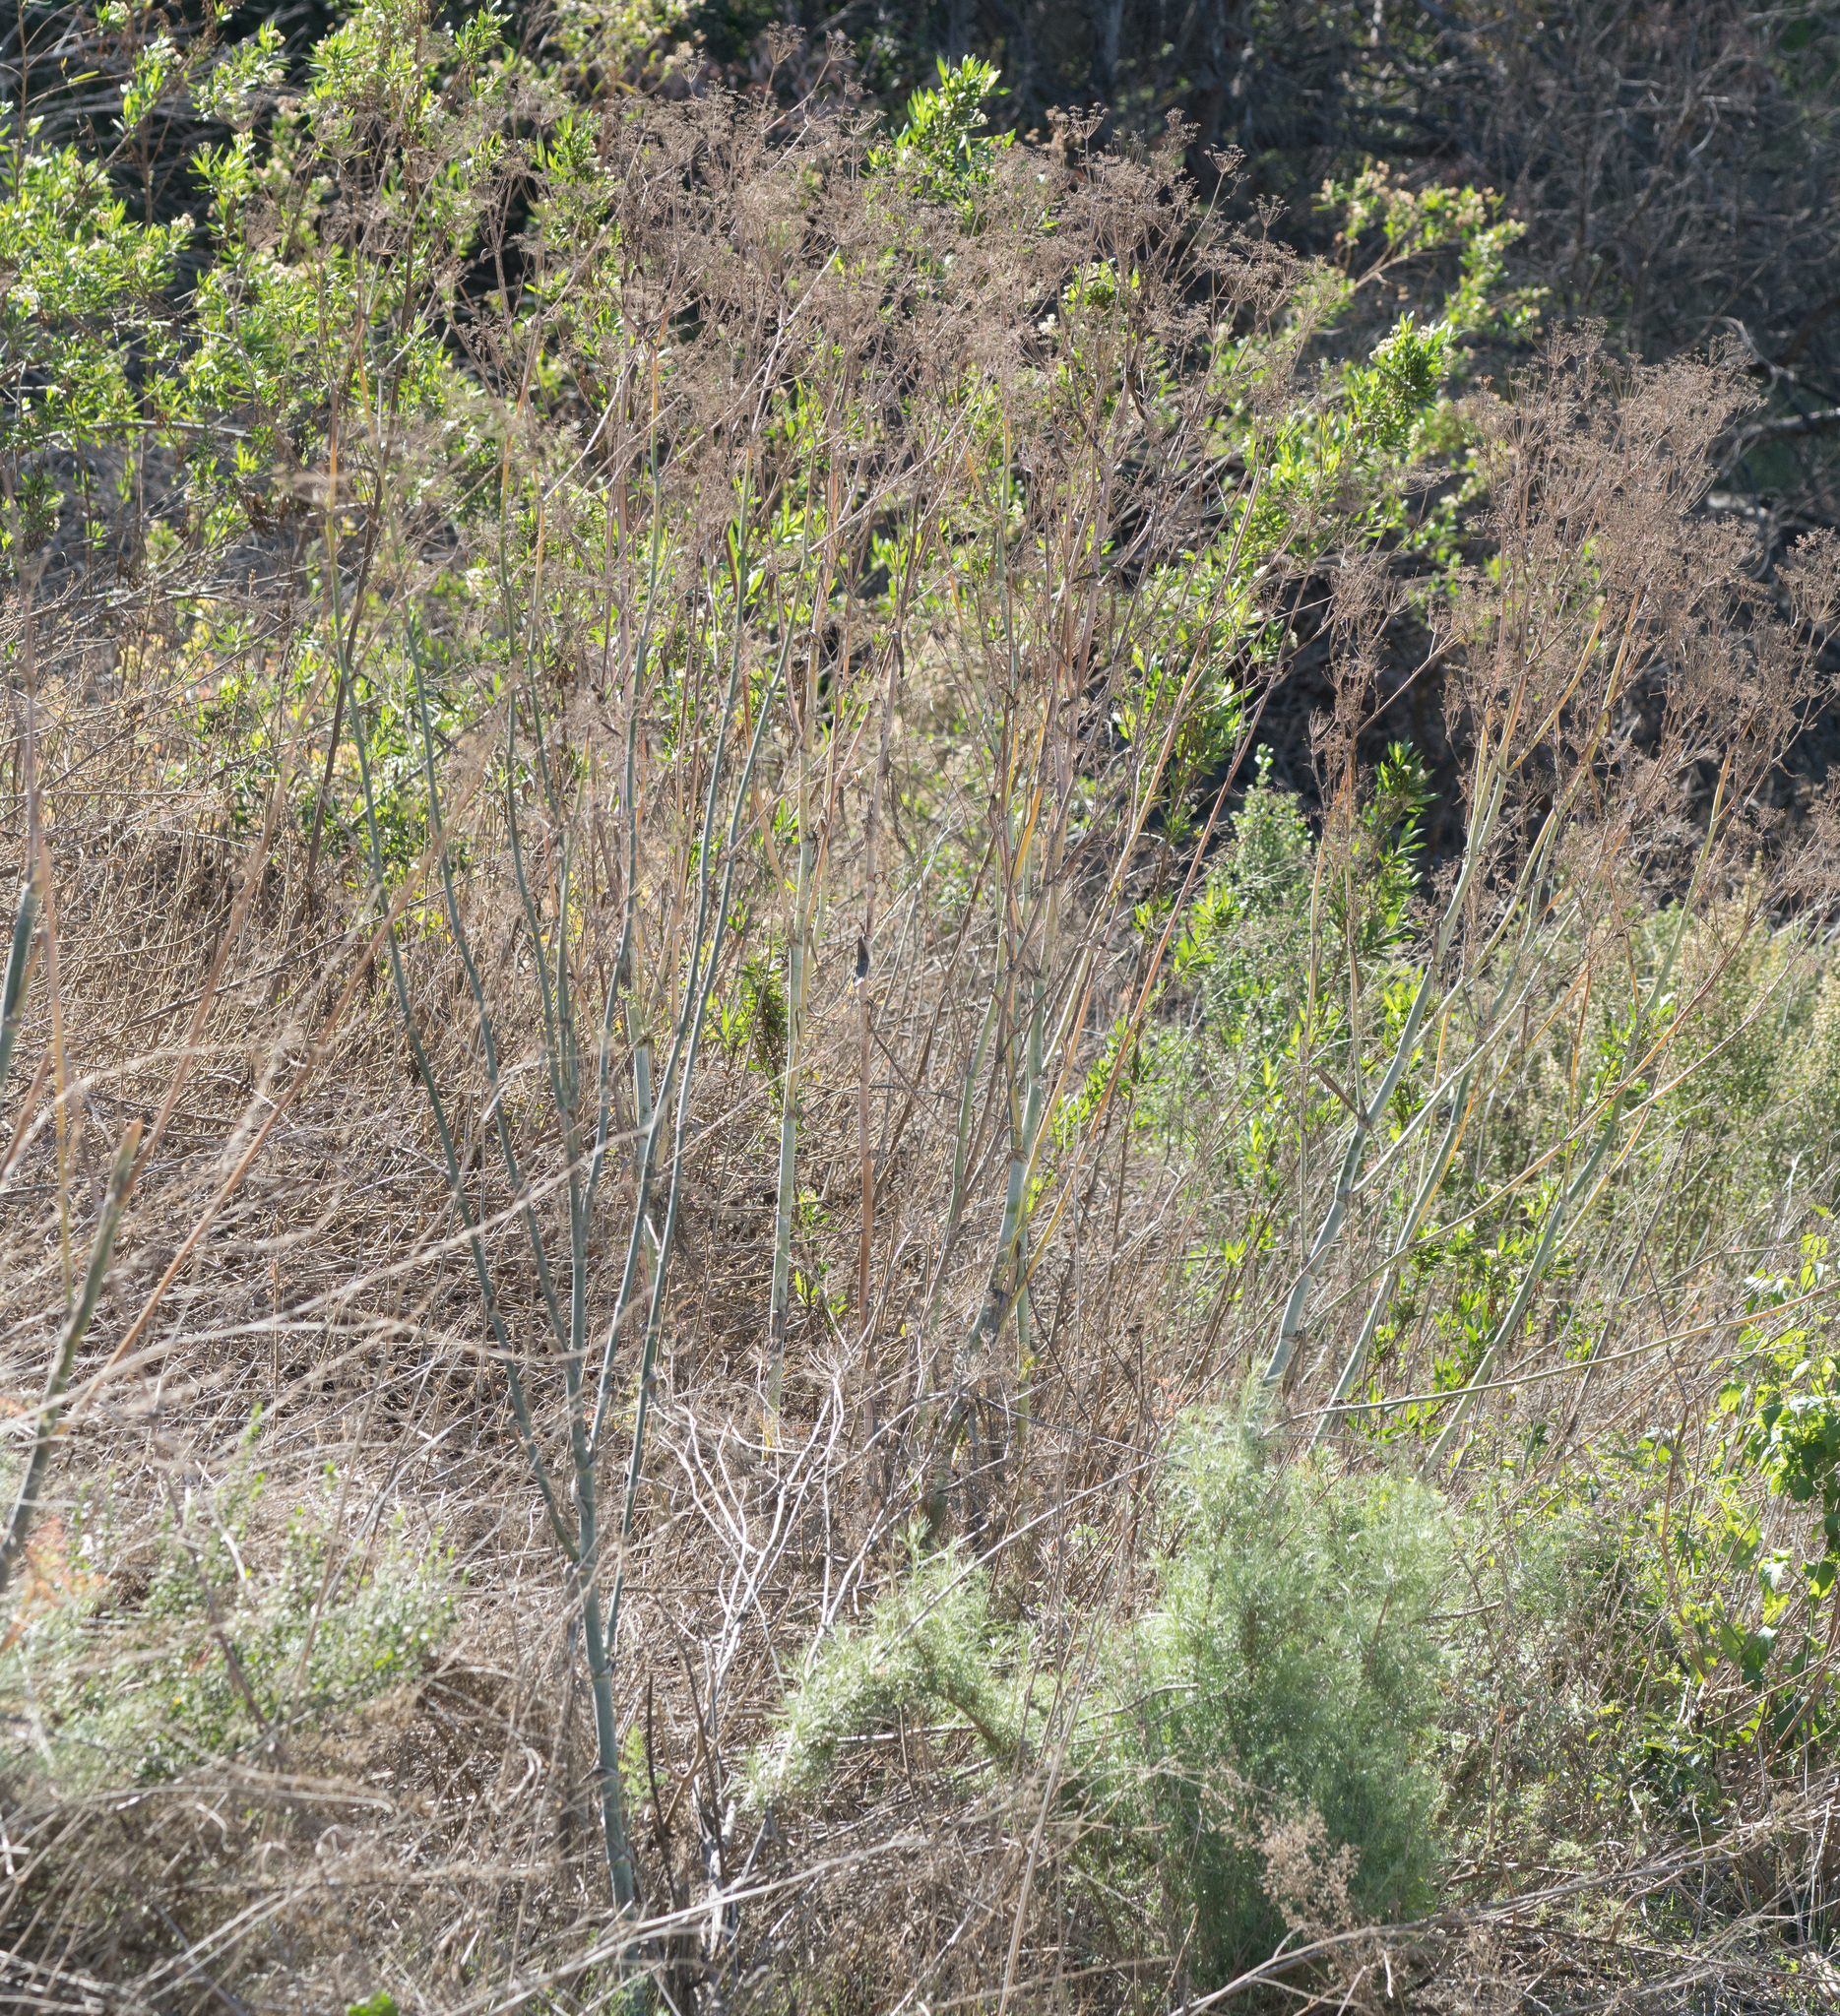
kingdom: Plantae
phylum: Tracheophyta
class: Magnoliopsida
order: Apiales
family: Apiaceae
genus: Foeniculum
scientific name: Foeniculum vulgare
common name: Fennel
